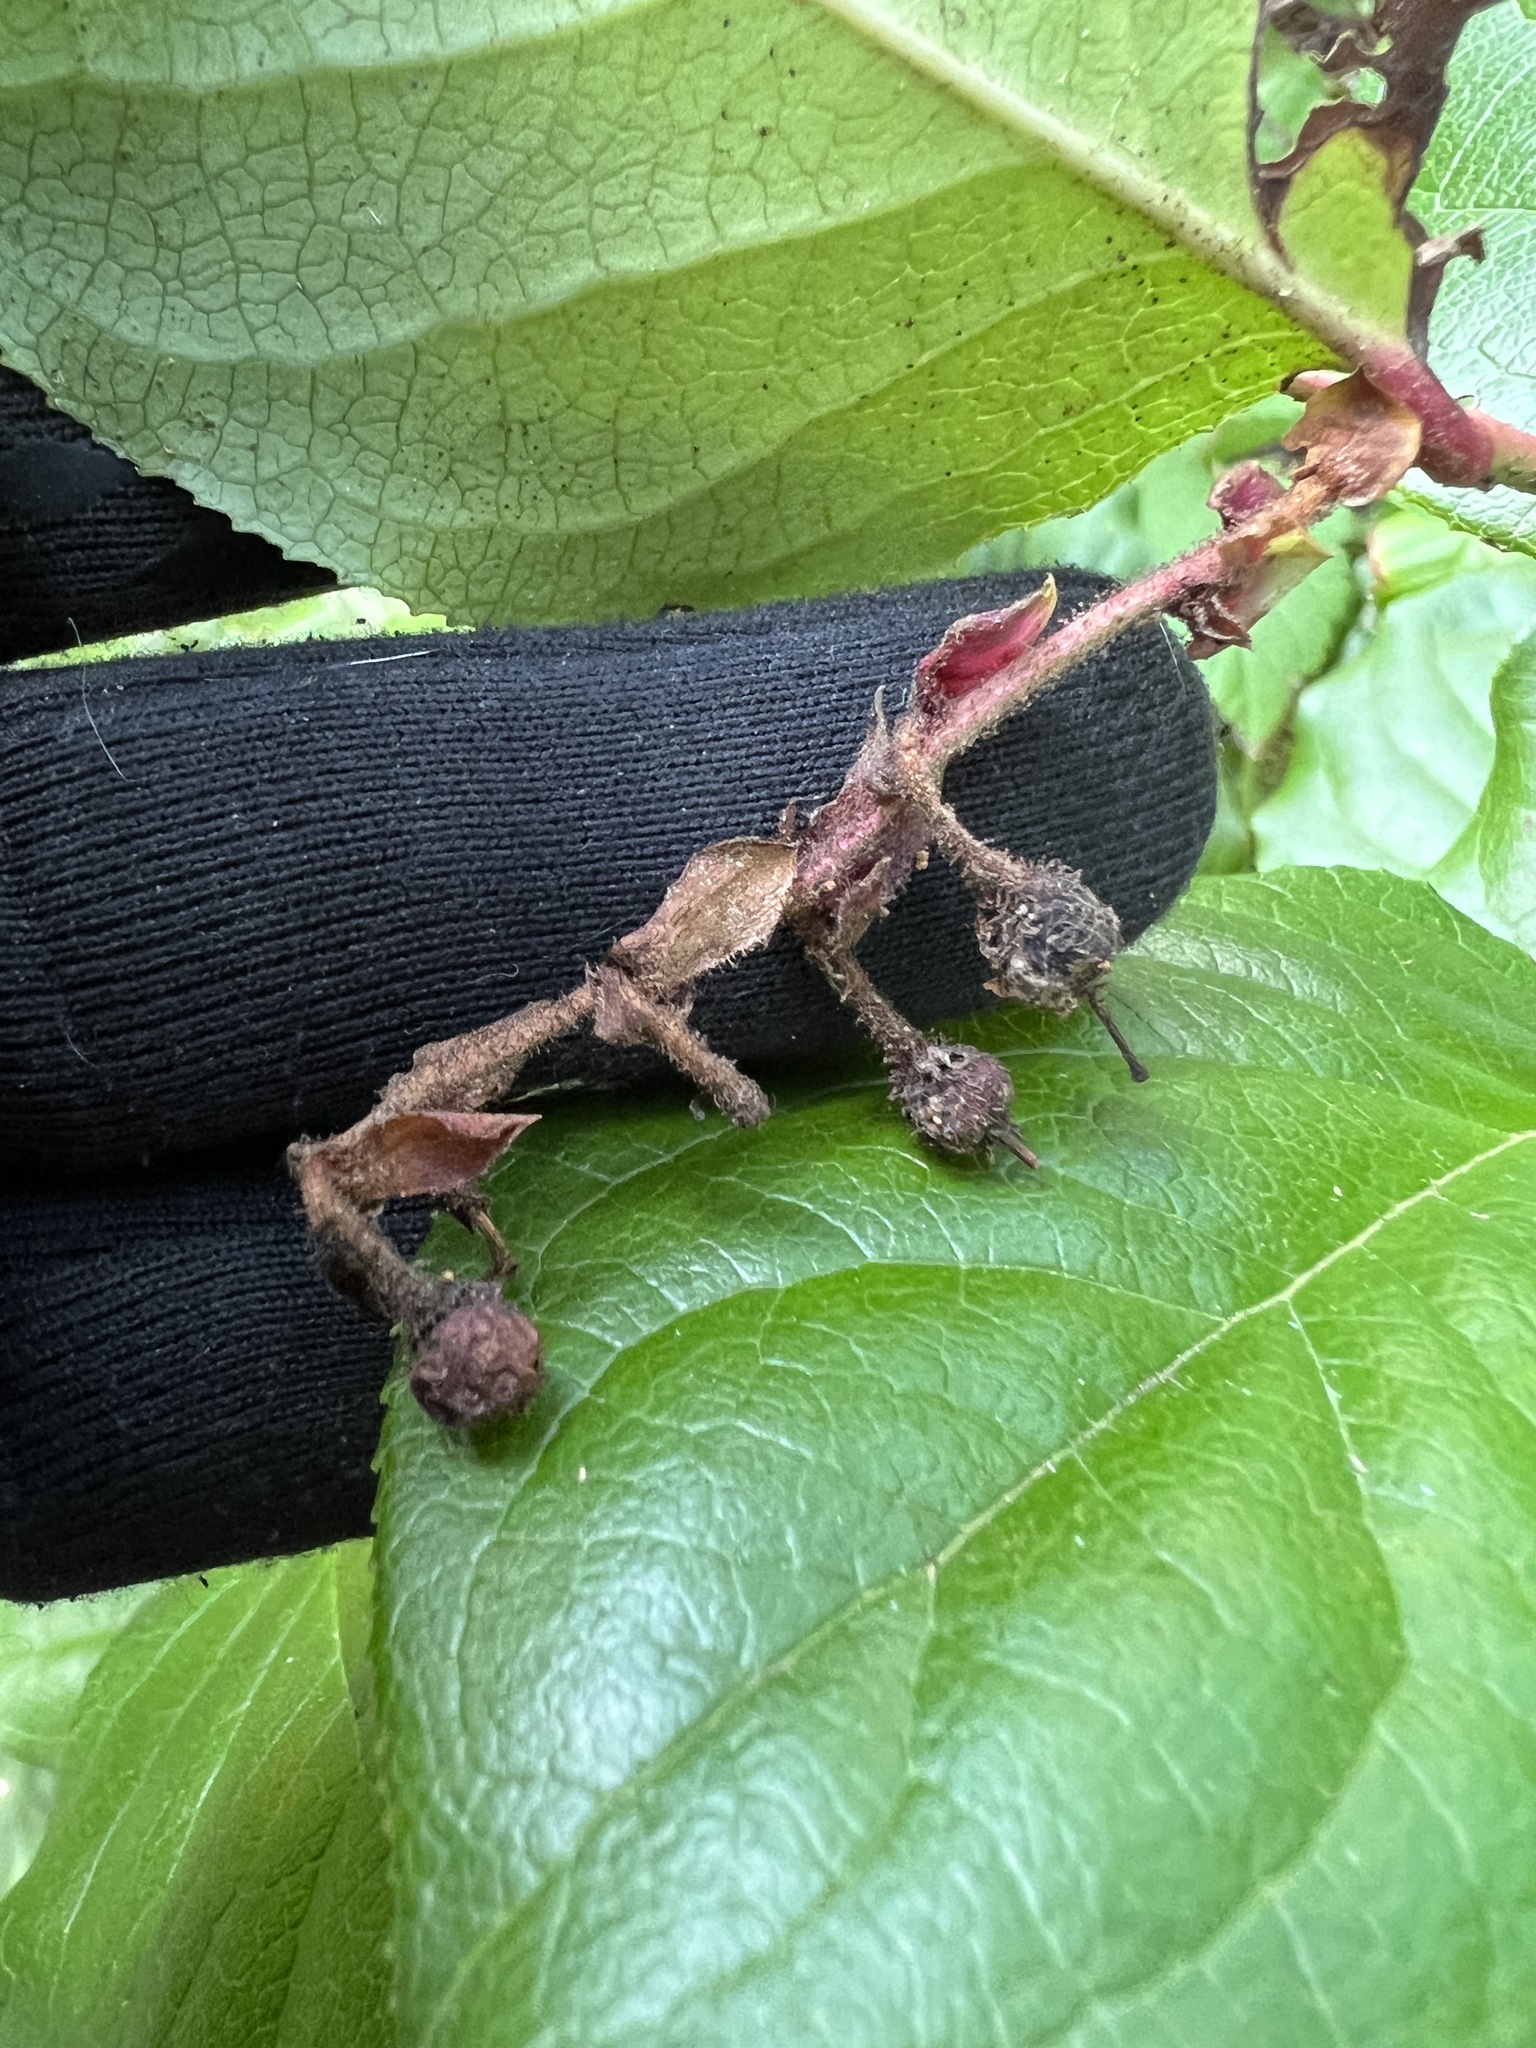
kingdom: Plantae
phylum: Tracheophyta
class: Magnoliopsida
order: Ericales
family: Ericaceae
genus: Gaultheria
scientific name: Gaultheria shallon
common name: Shallon
